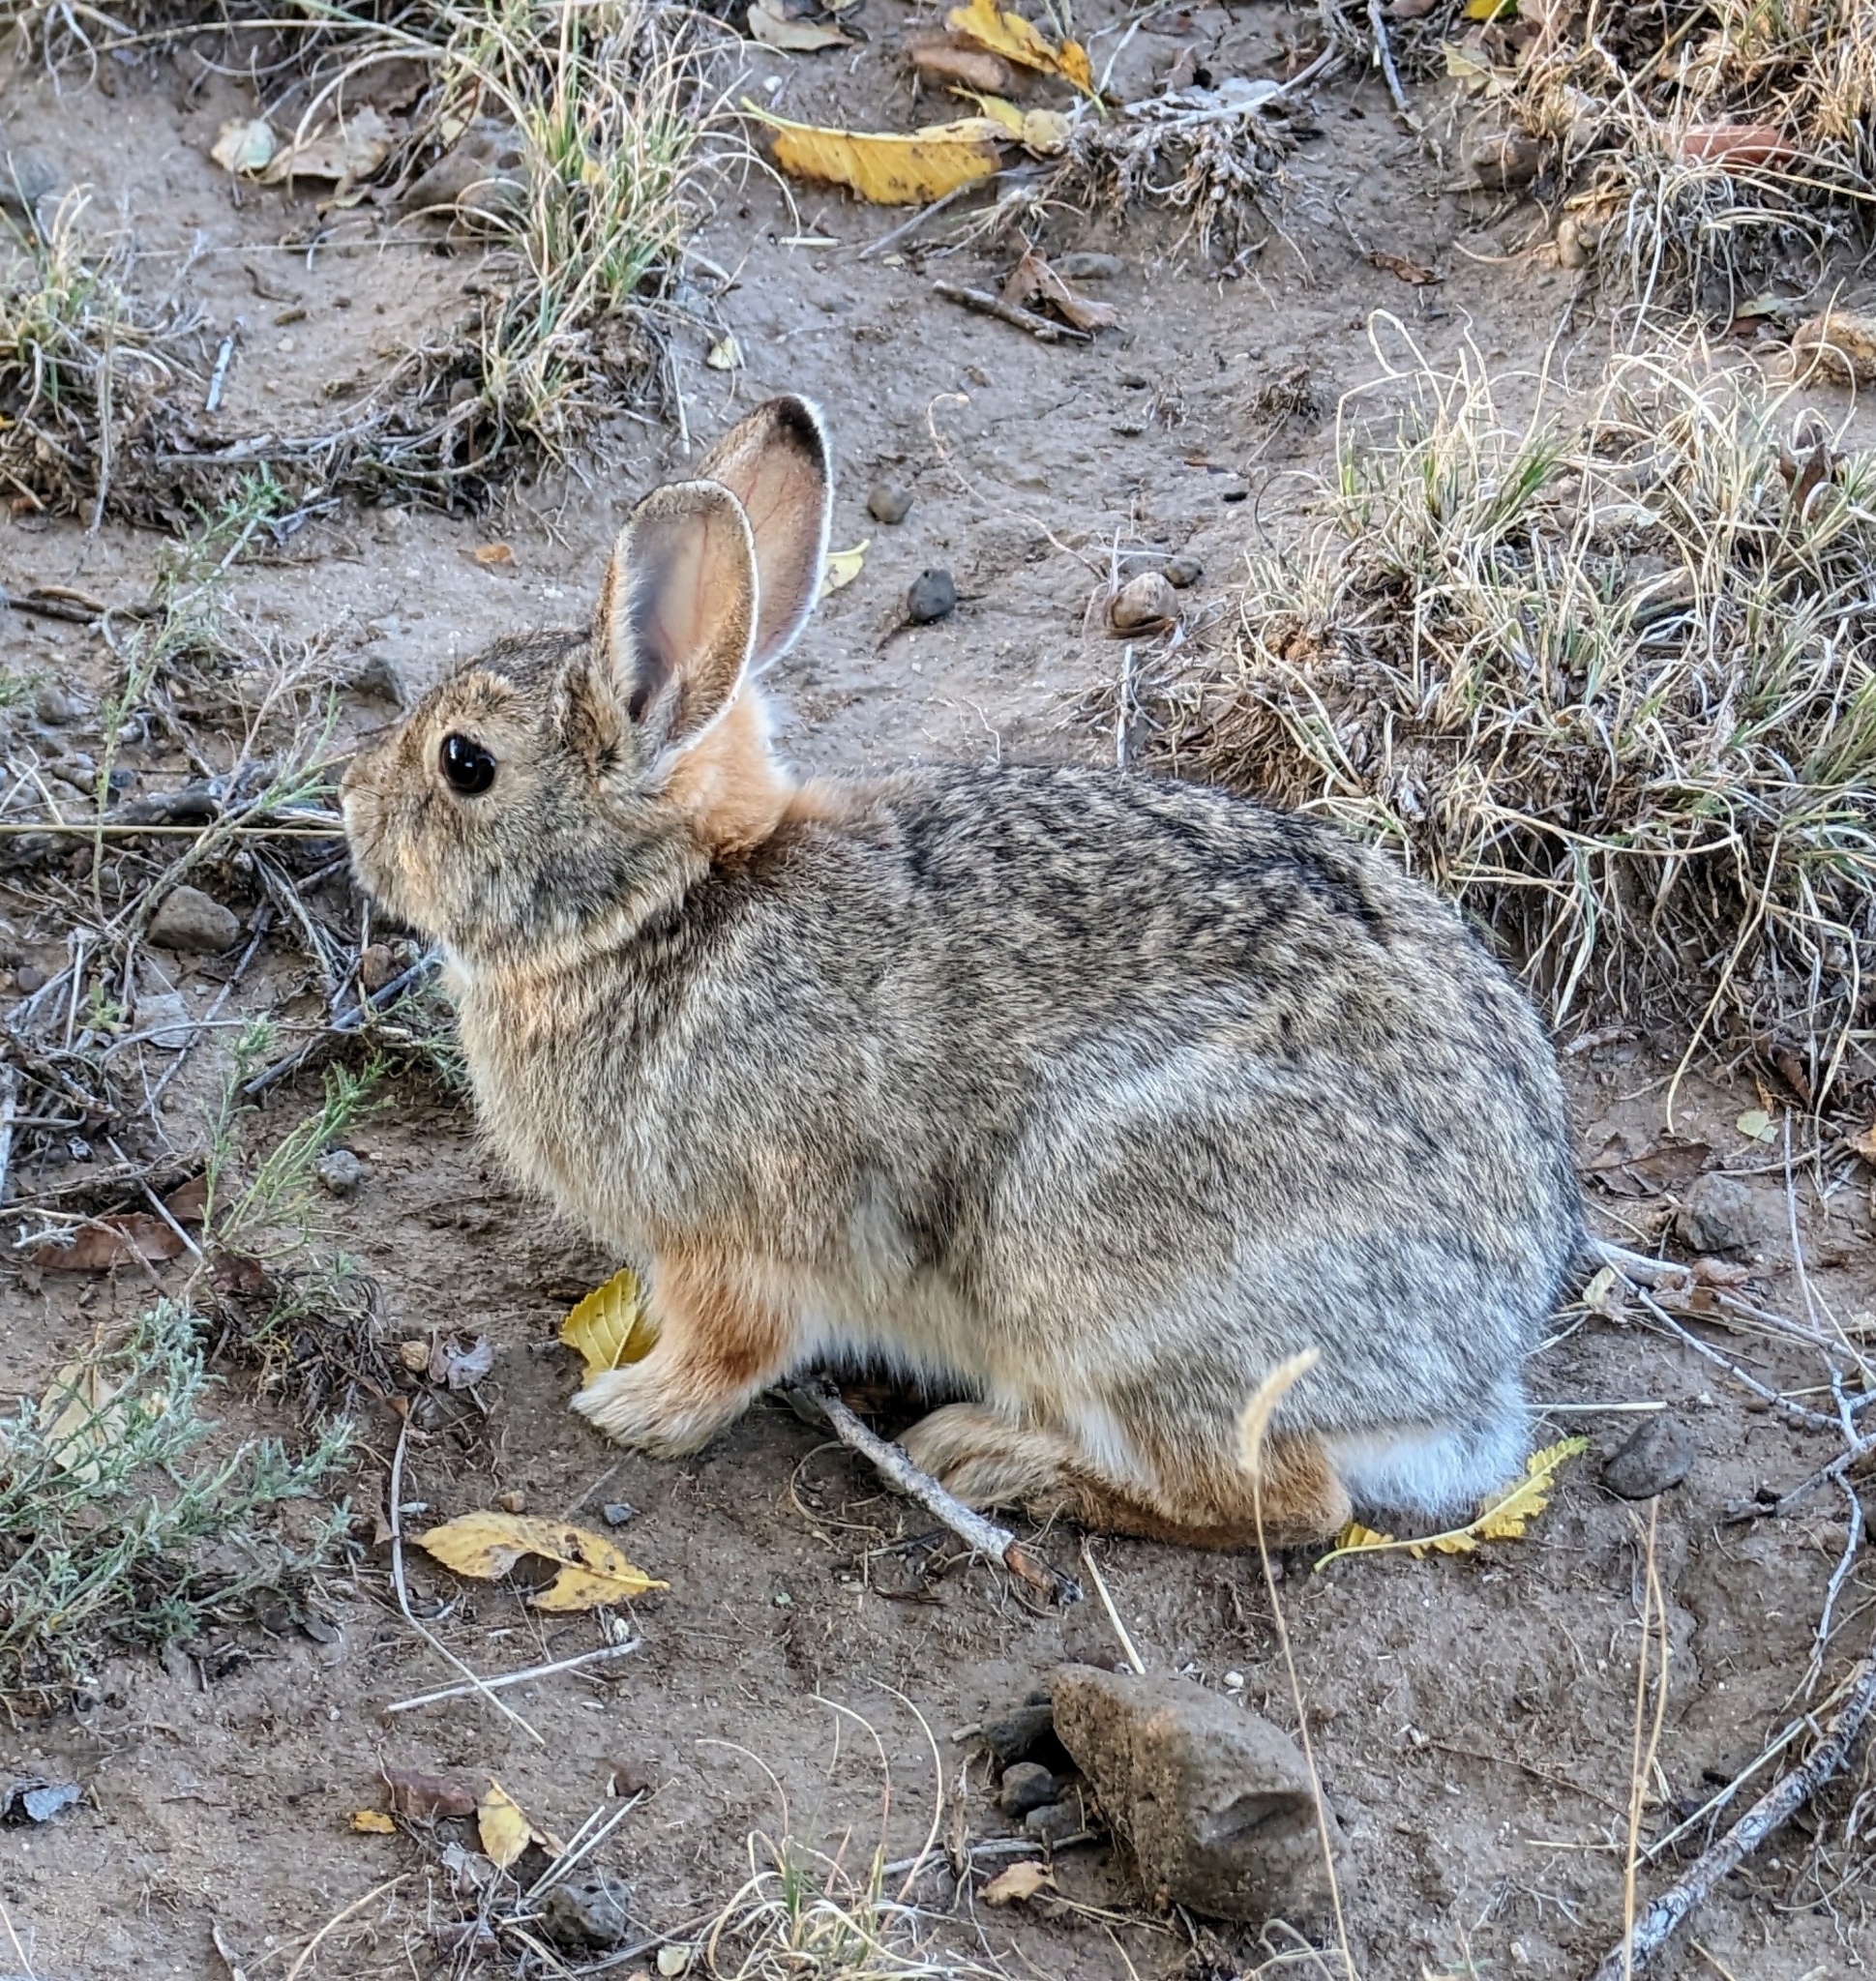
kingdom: Animalia
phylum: Chordata
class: Mammalia
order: Lagomorpha
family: Leporidae
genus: Sylvilagus
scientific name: Sylvilagus audubonii
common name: Desert cottontail
